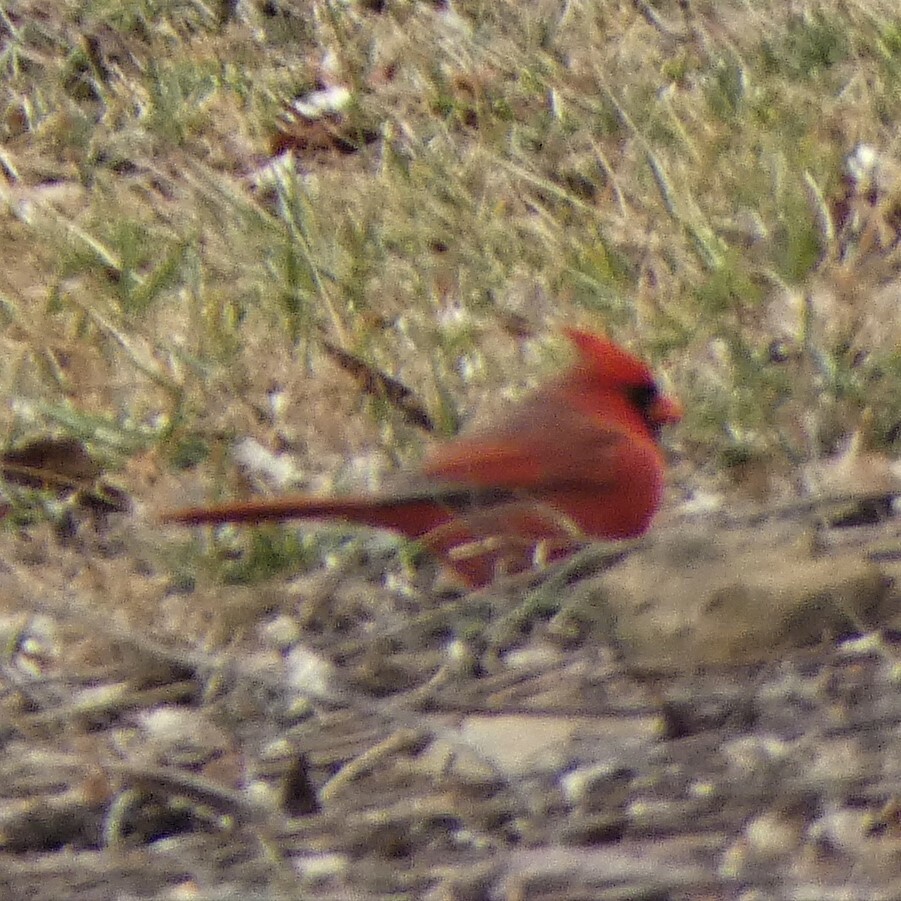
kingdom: Animalia
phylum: Chordata
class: Aves
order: Passeriformes
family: Cardinalidae
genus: Cardinalis
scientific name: Cardinalis cardinalis
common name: Northern cardinal
